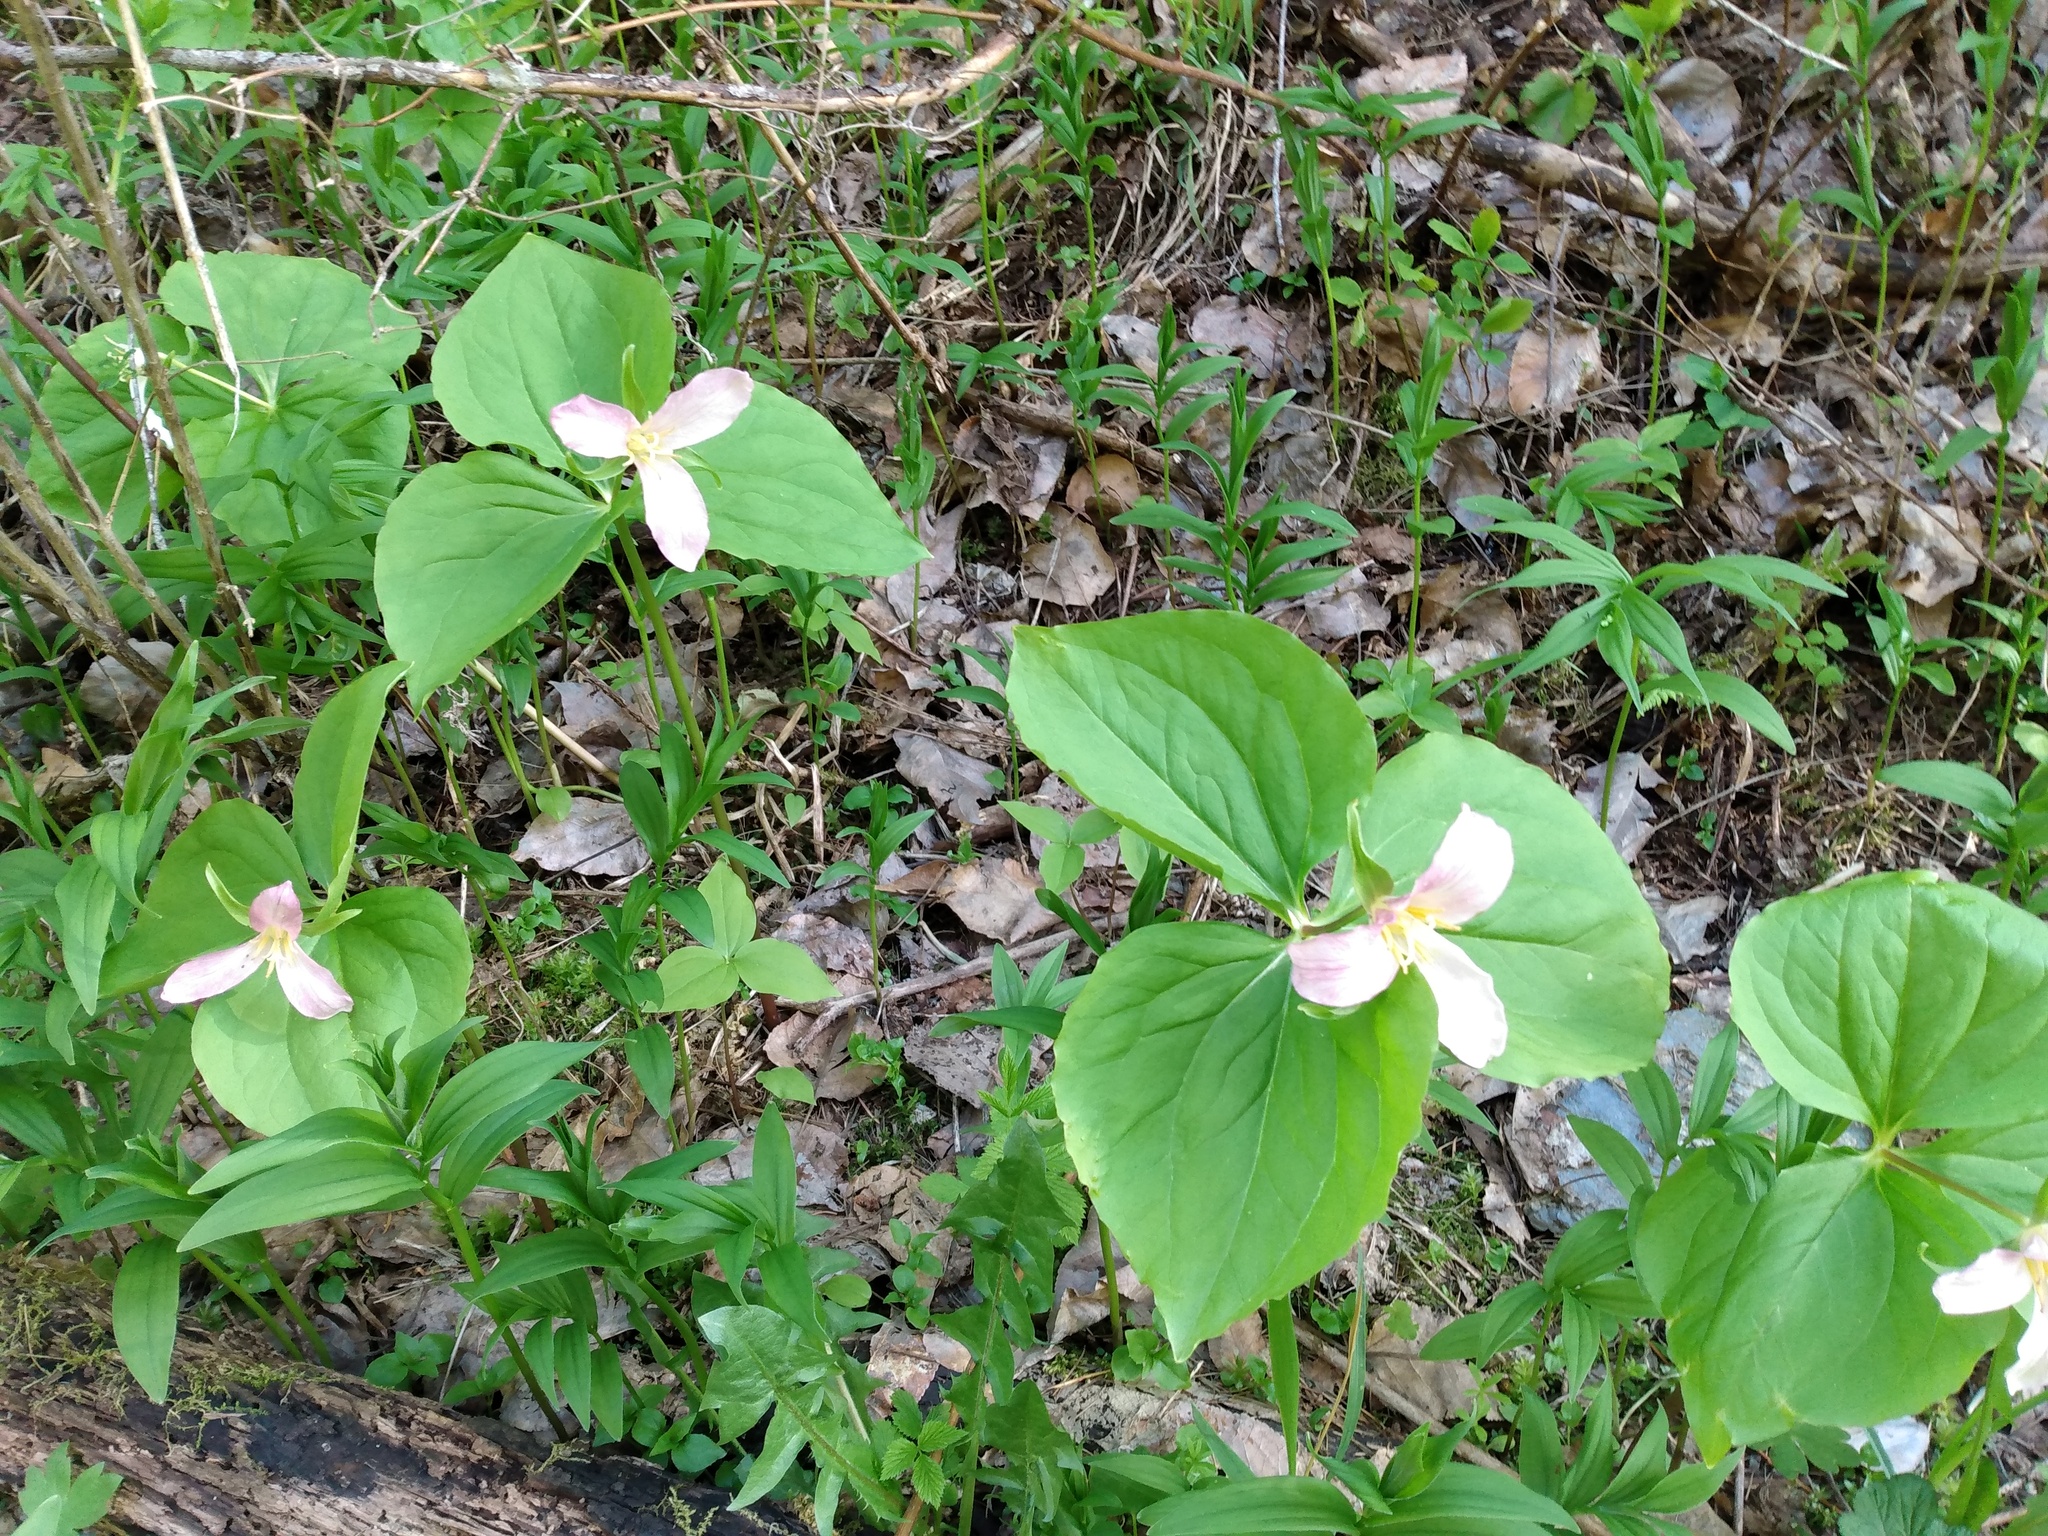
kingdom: Plantae
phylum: Tracheophyta
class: Liliopsida
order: Liliales
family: Melanthiaceae
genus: Trillium
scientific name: Trillium ovatum
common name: Pacific trillium
